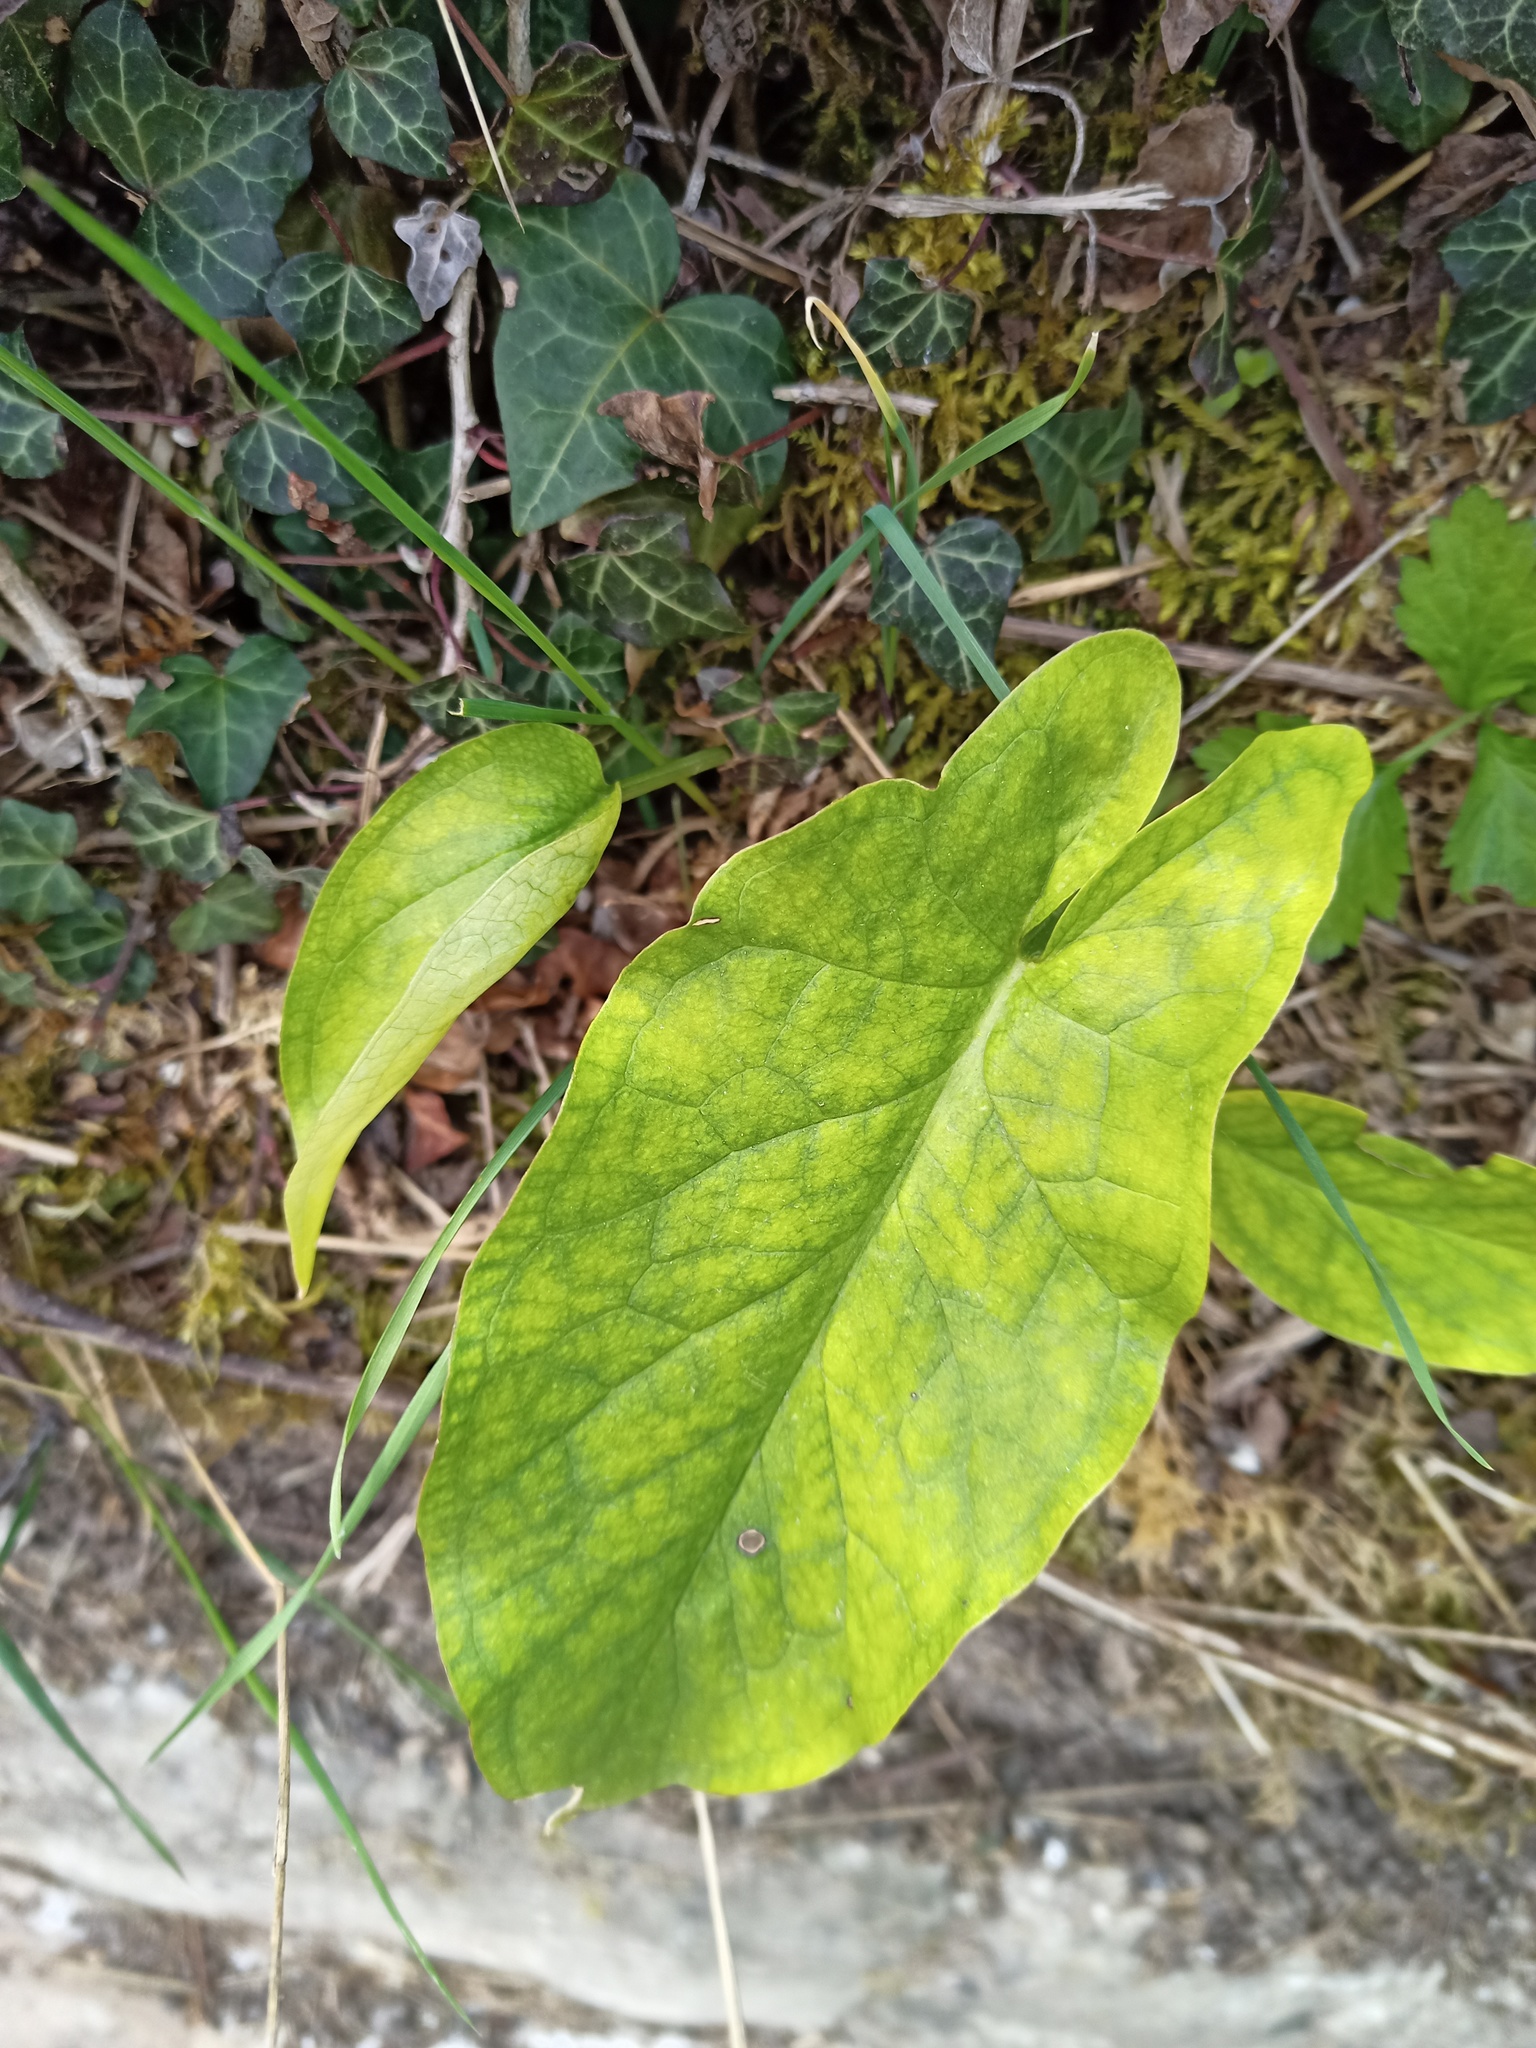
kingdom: Plantae
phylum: Tracheophyta
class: Liliopsida
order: Alismatales
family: Araceae
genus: Arum
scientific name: Arum maculatum
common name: Lords-and-ladies
